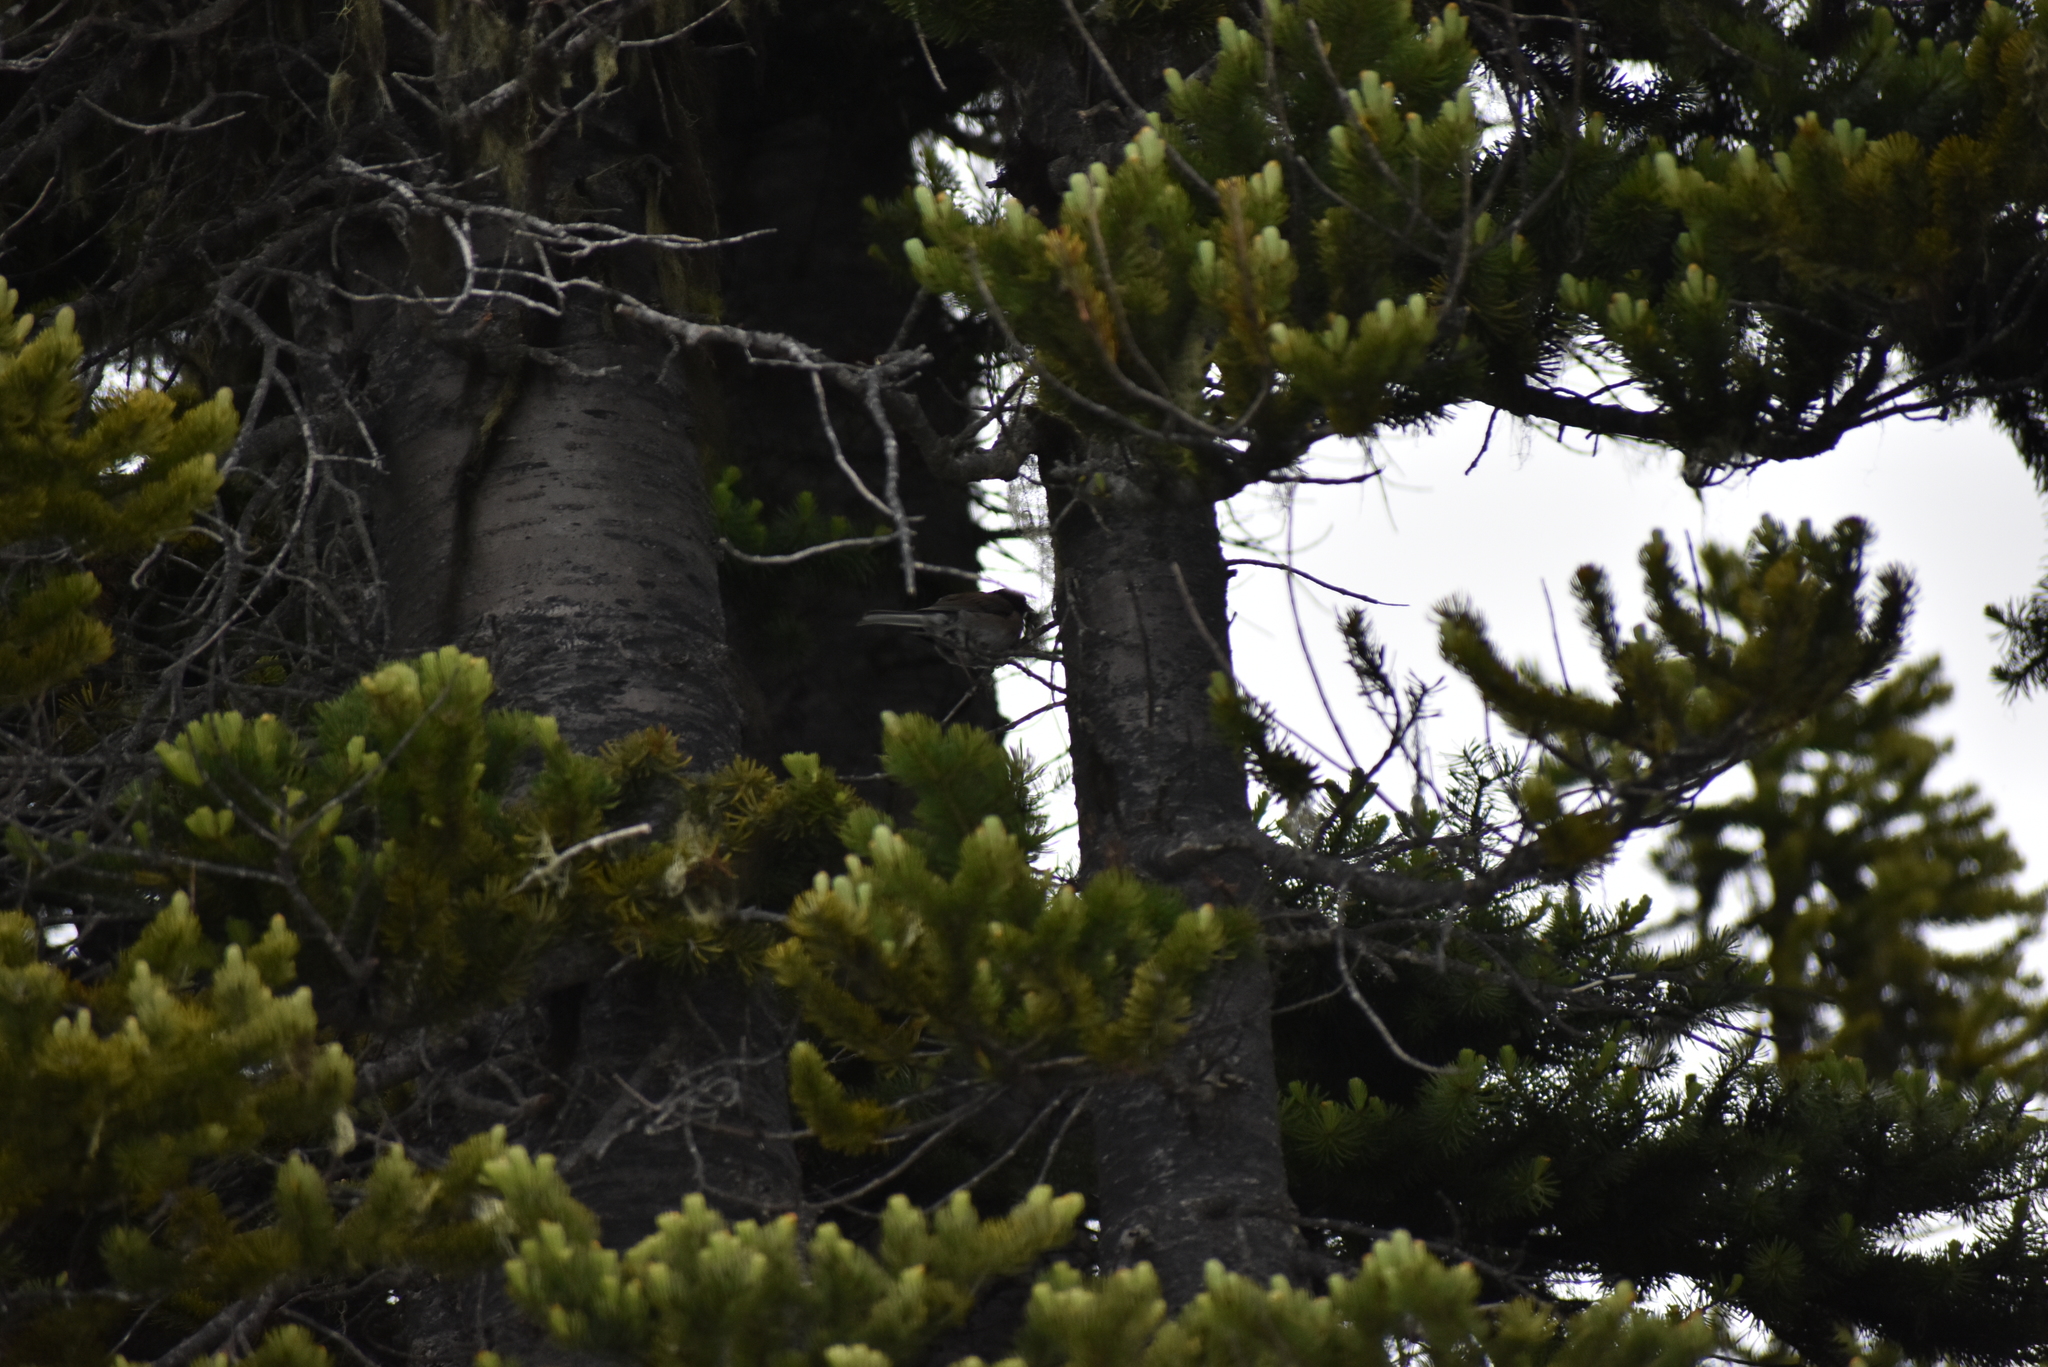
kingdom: Animalia
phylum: Chordata
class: Aves
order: Passeriformes
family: Passerellidae
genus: Junco
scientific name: Junco hyemalis
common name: Dark-eyed junco
